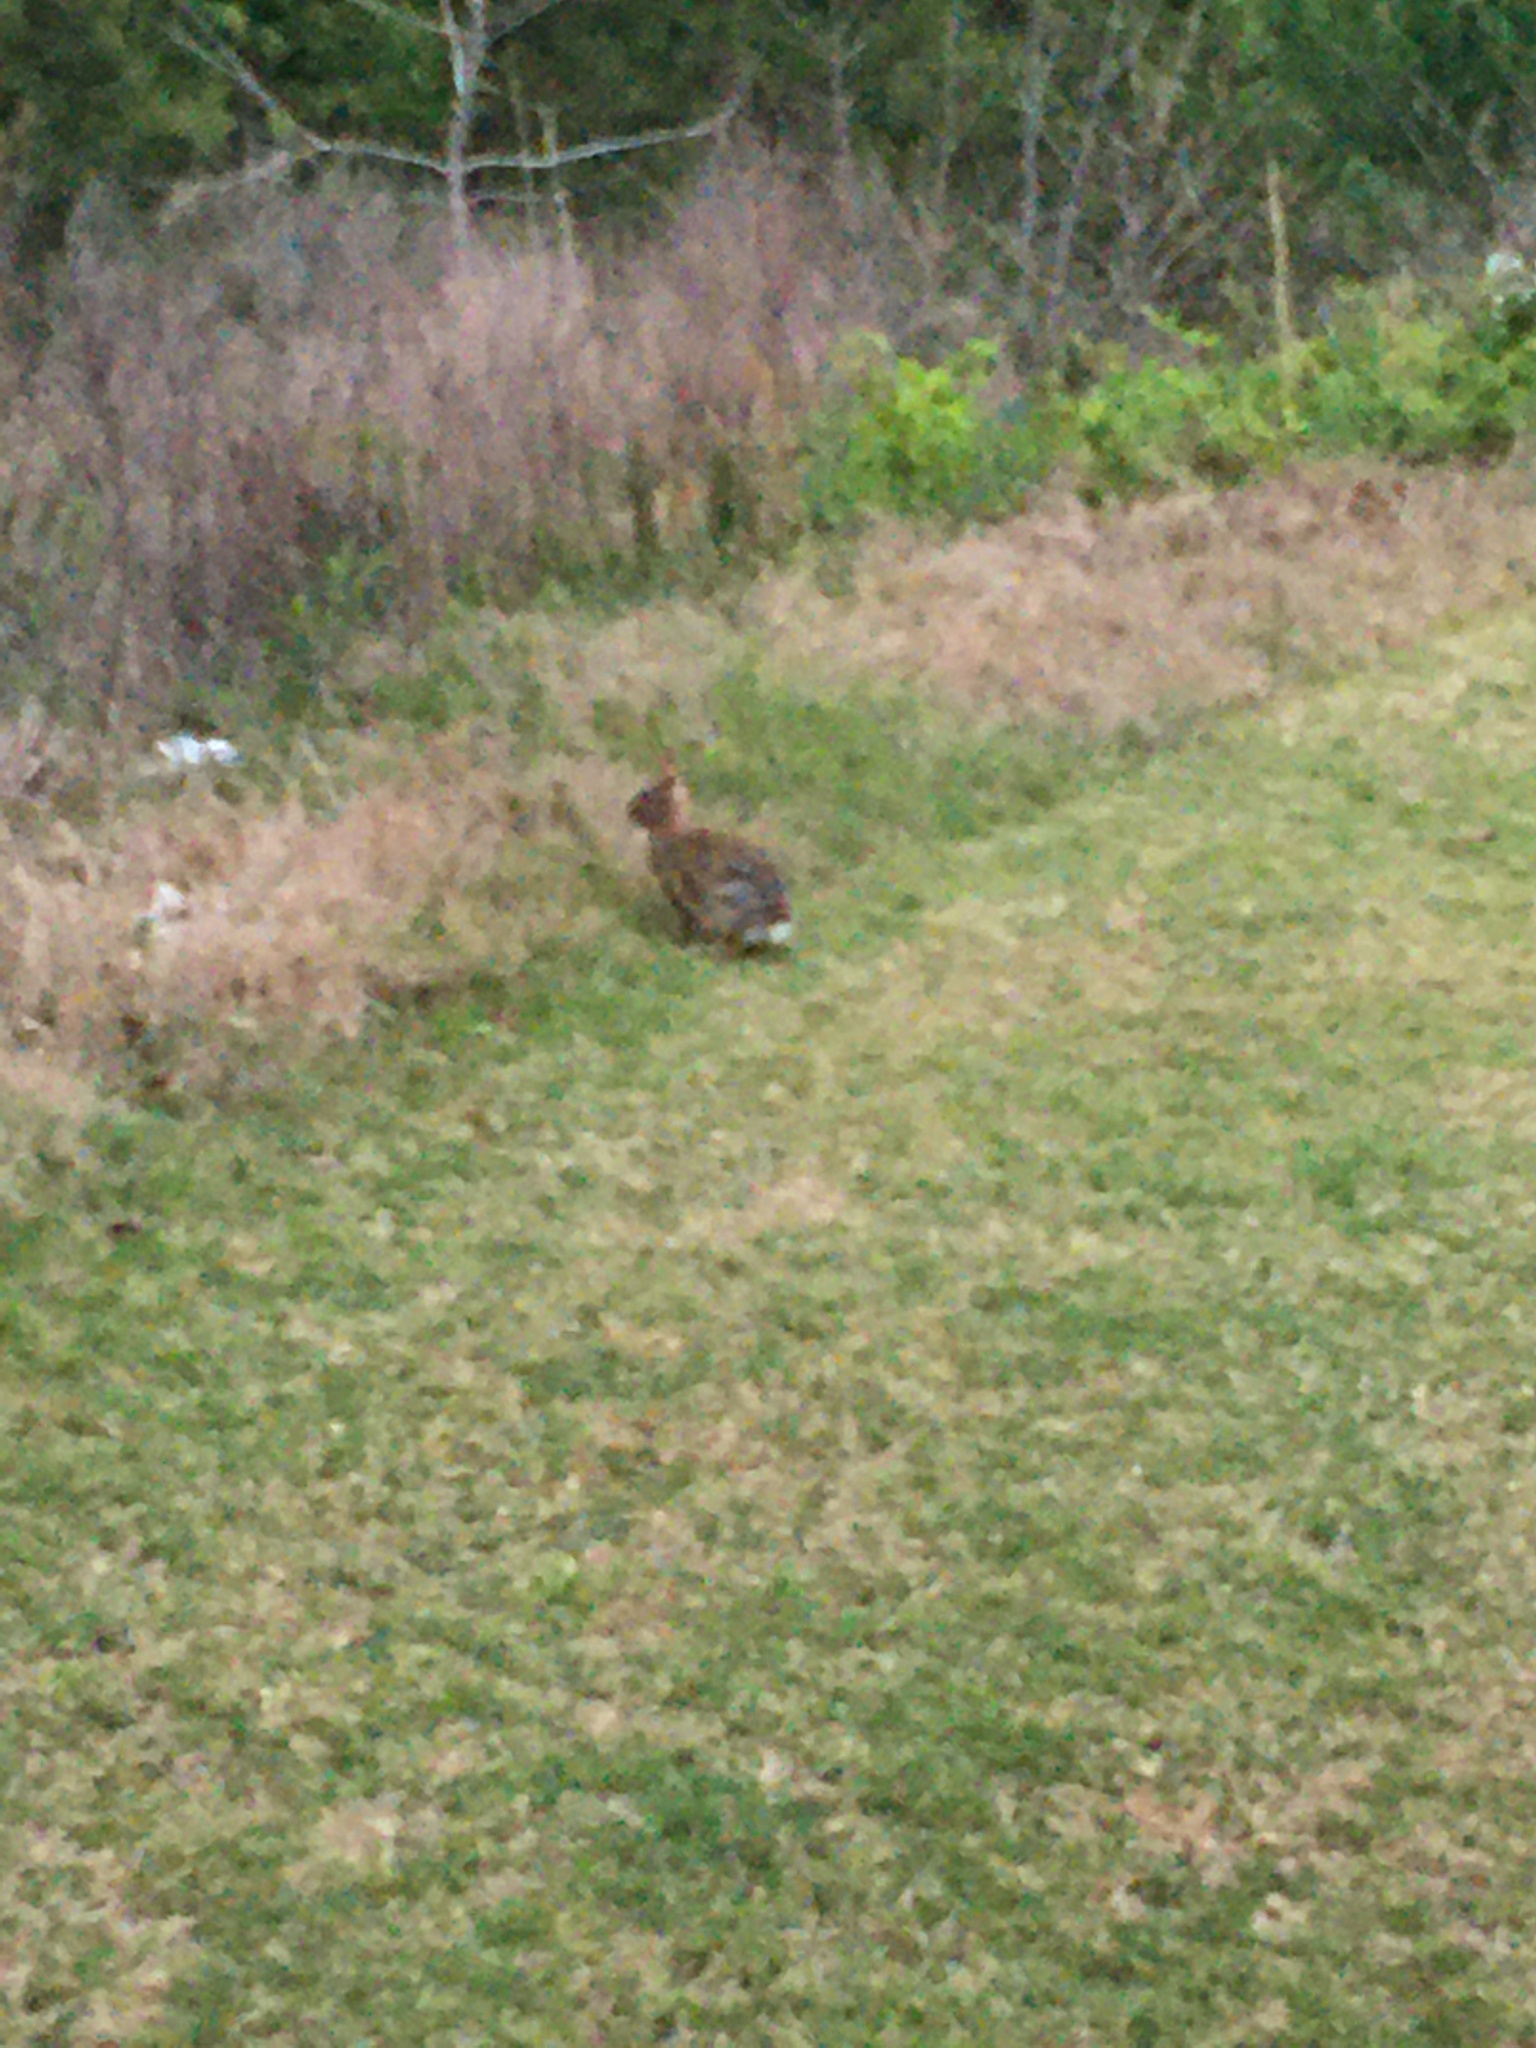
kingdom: Animalia
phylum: Chordata
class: Mammalia
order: Lagomorpha
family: Leporidae
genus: Sylvilagus
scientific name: Sylvilagus floridanus
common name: Eastern cottontail
